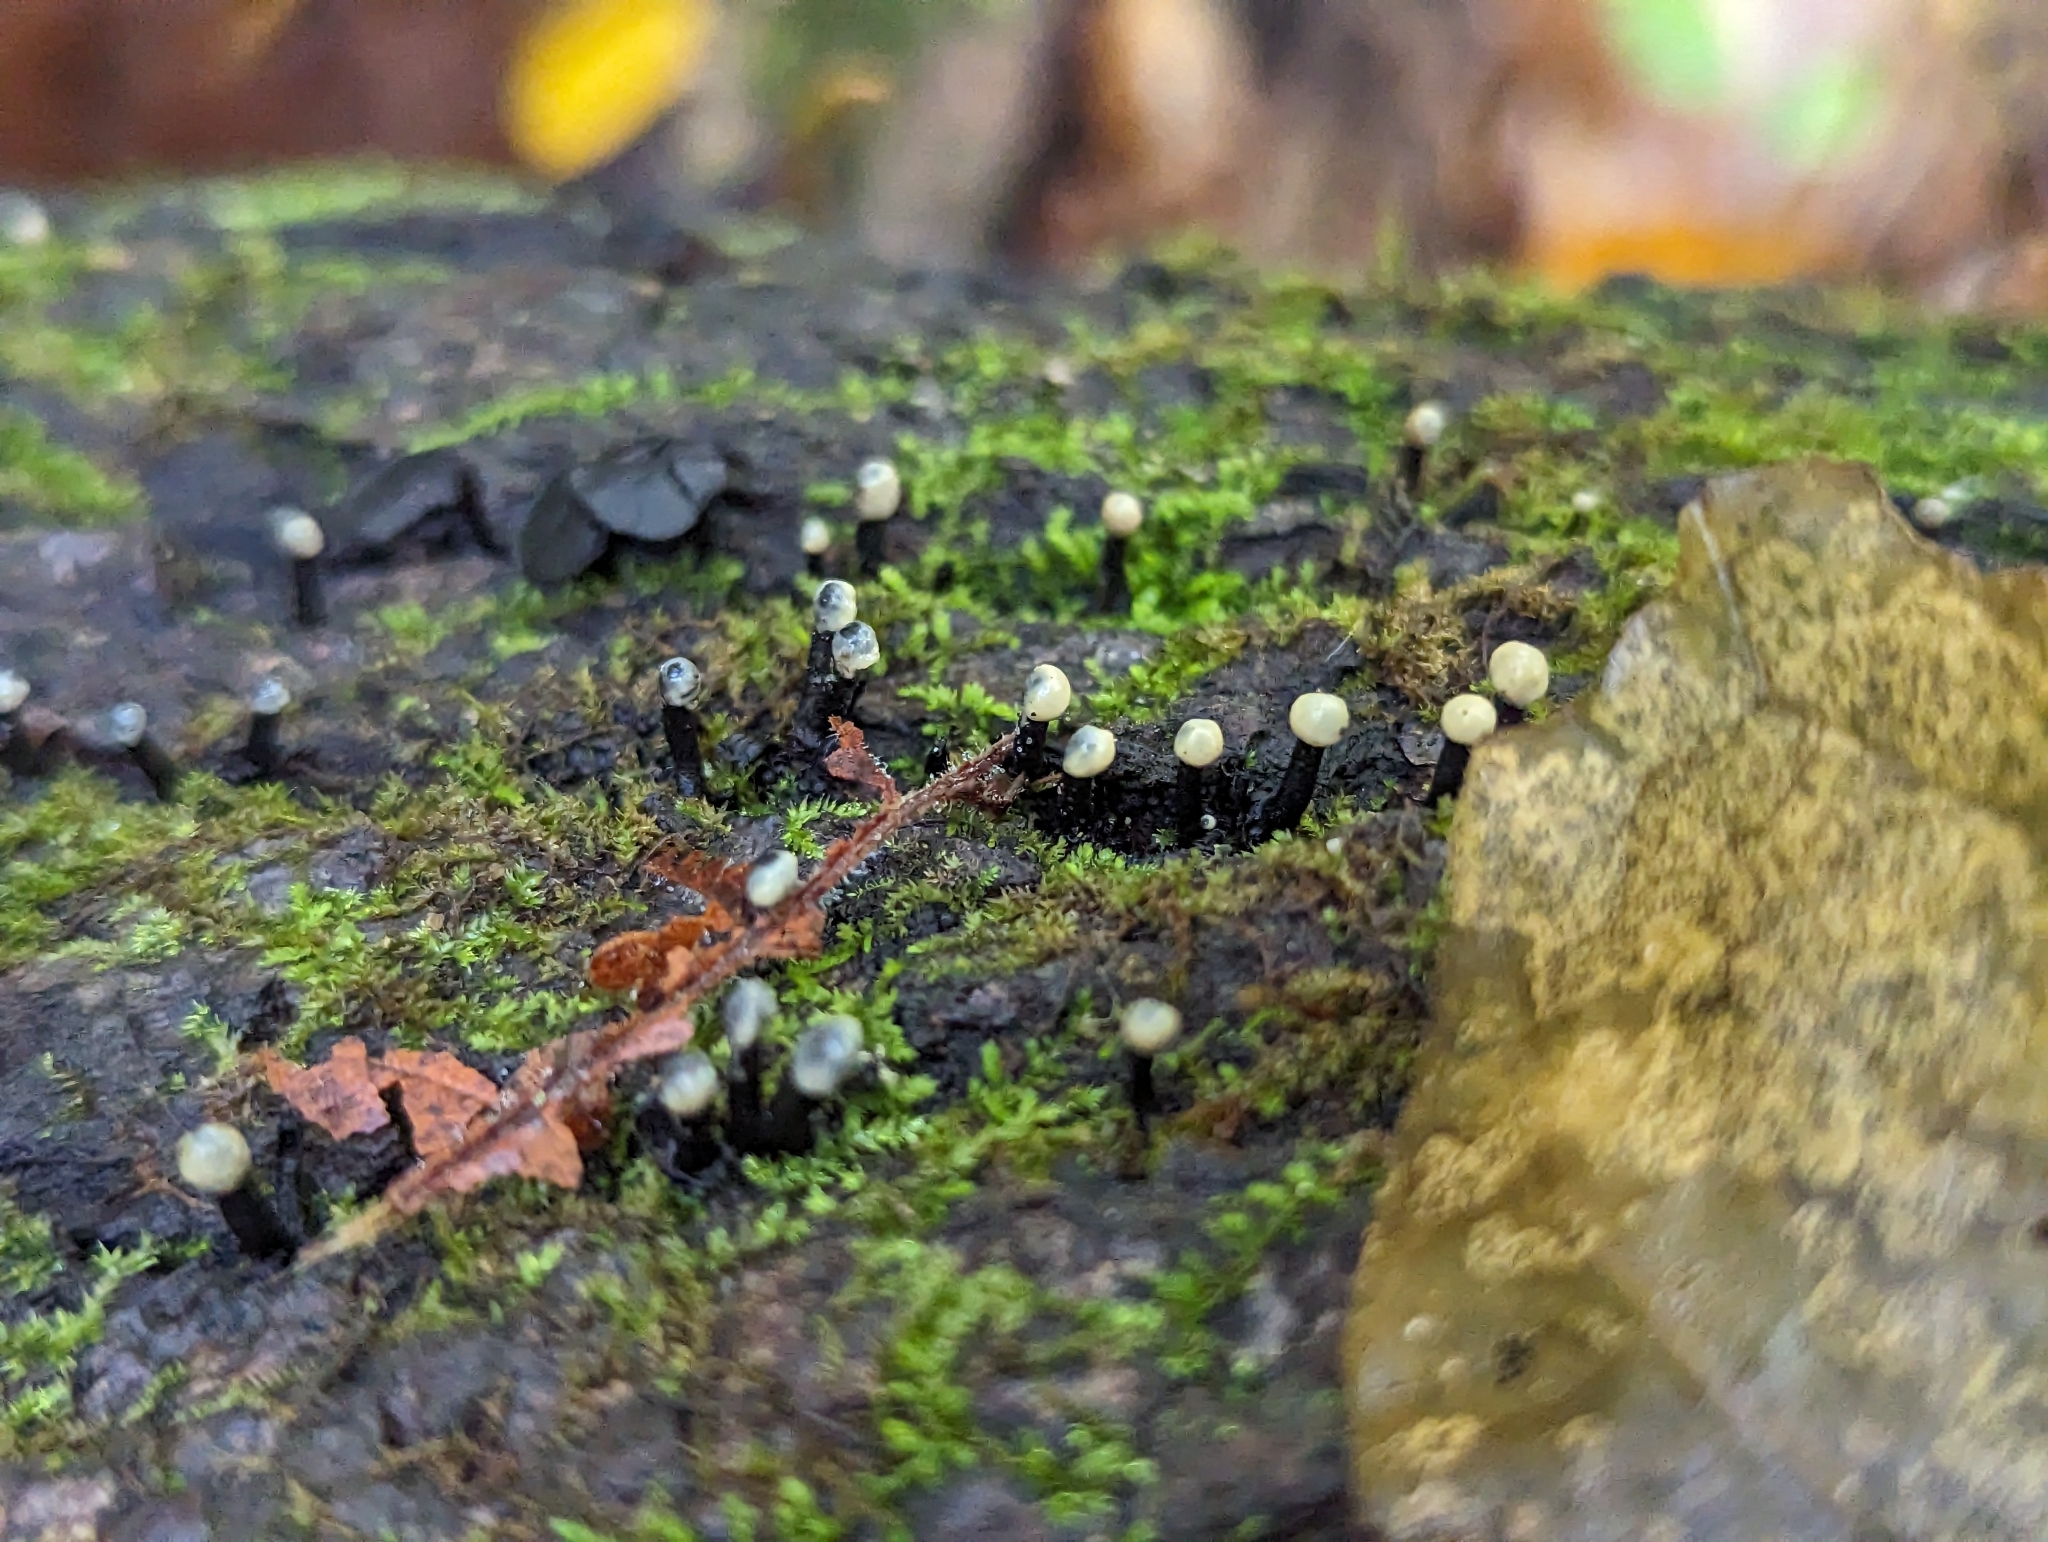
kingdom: Fungi
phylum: Ascomycota
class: Leotiomycetes
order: Helotiales
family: Bulgariaceae
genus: Holwaya
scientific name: Holwaya mucida
